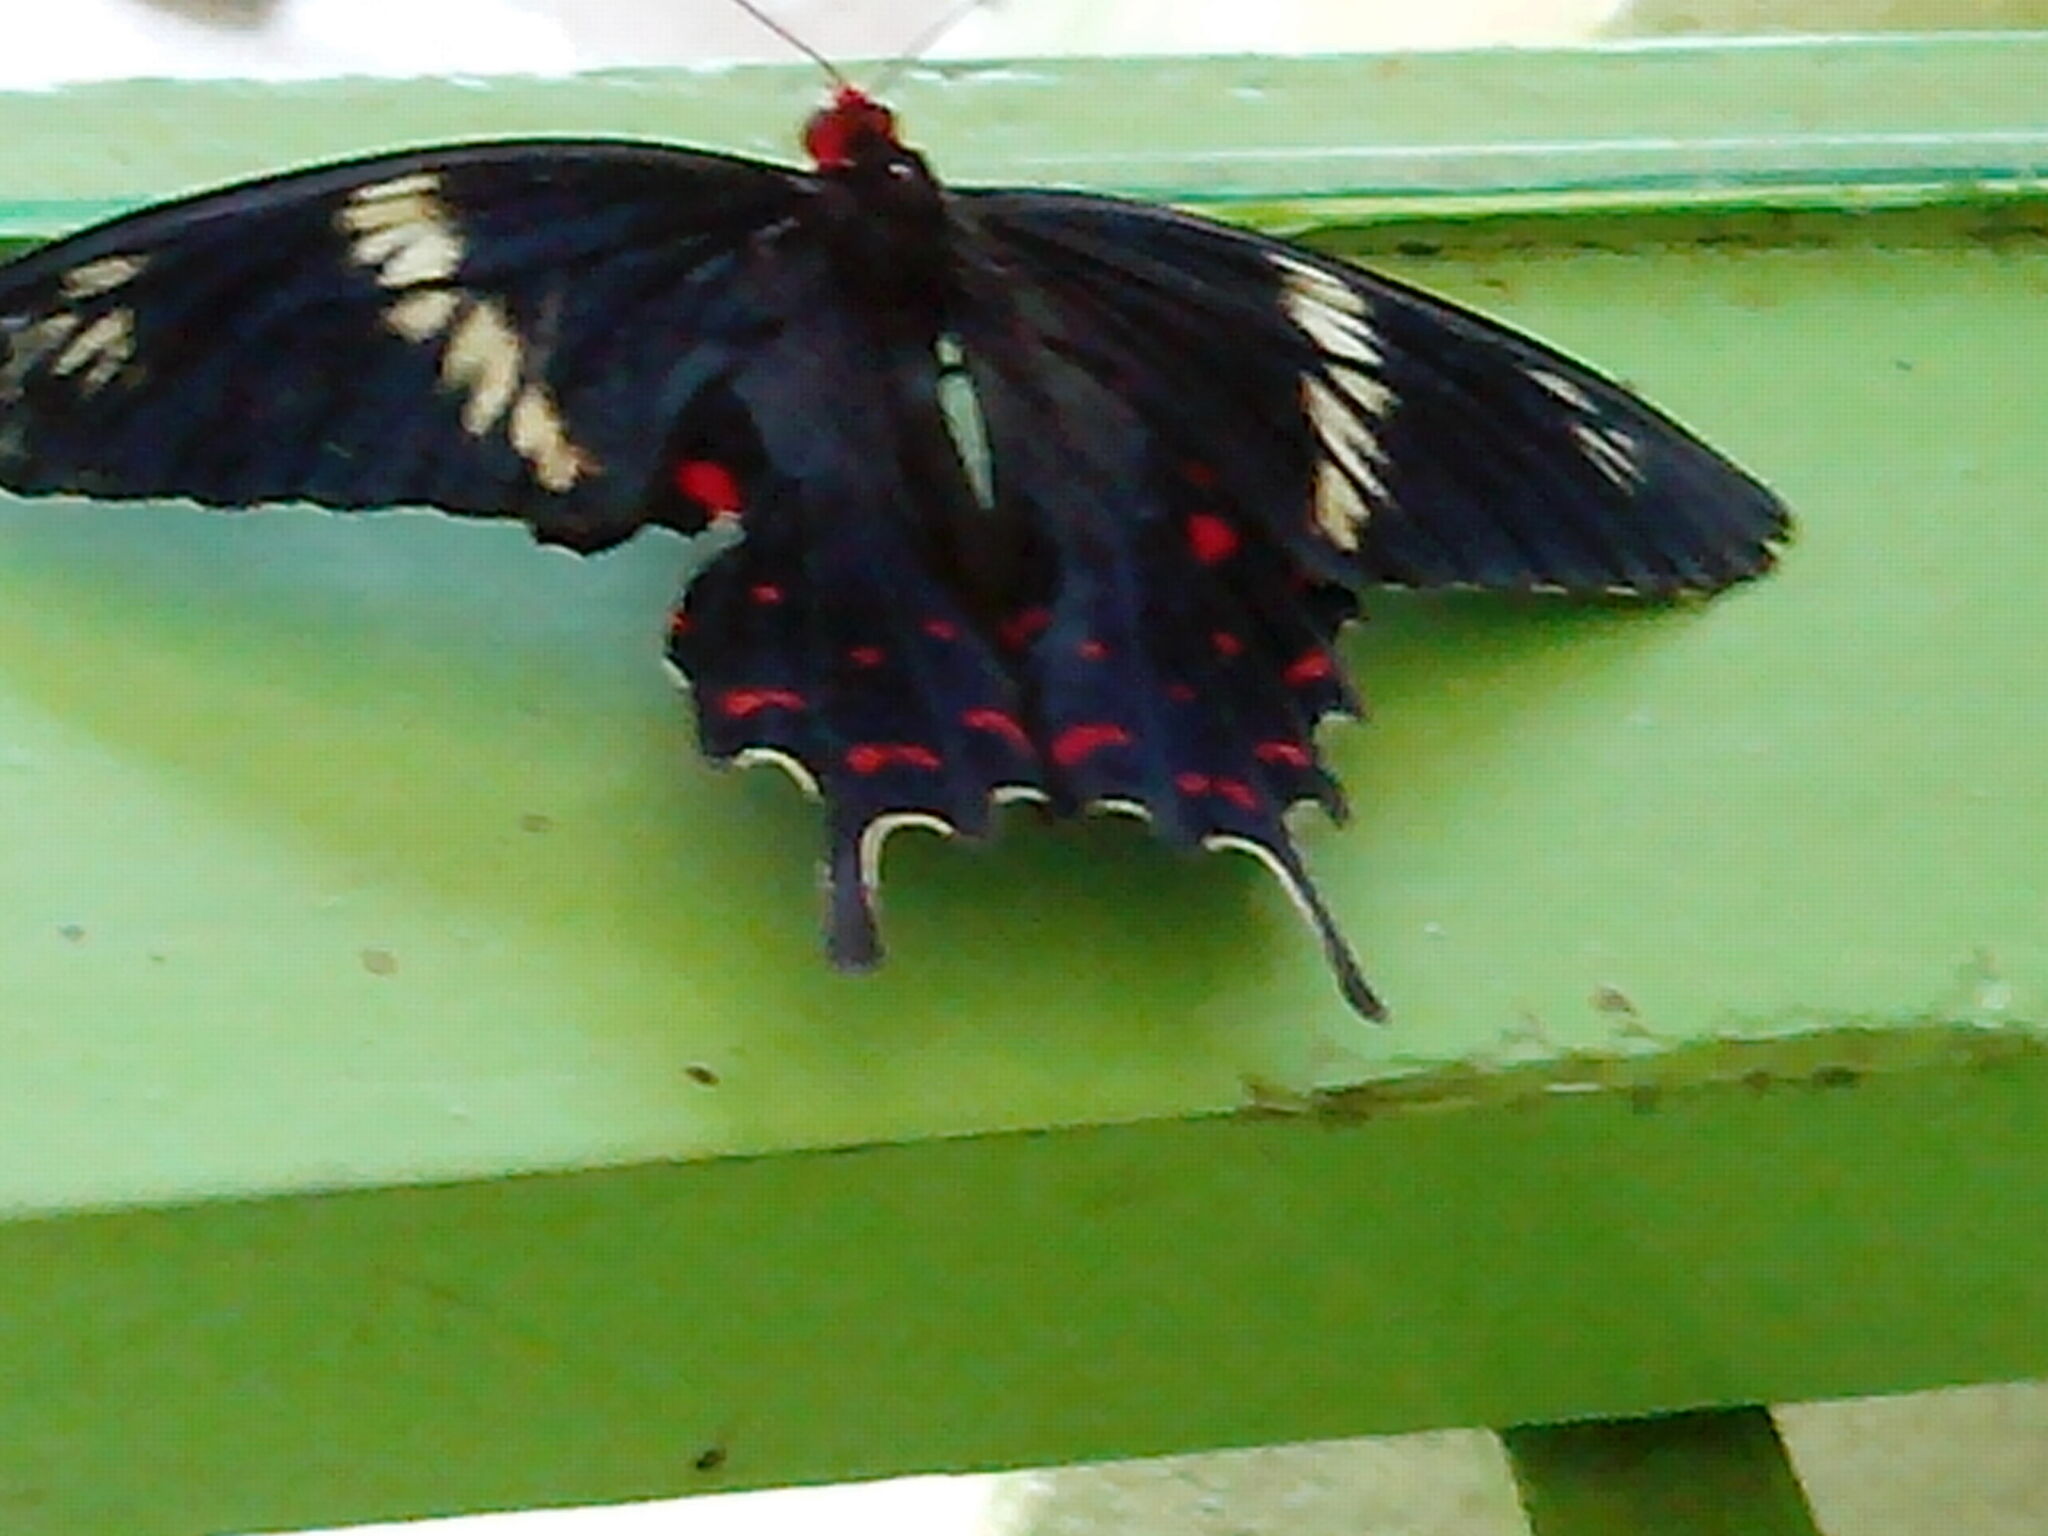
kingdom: Animalia
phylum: Arthropoda
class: Insecta
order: Lepidoptera
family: Papilionidae
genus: Pachliopta
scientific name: Pachliopta hector
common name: Crimson rose
